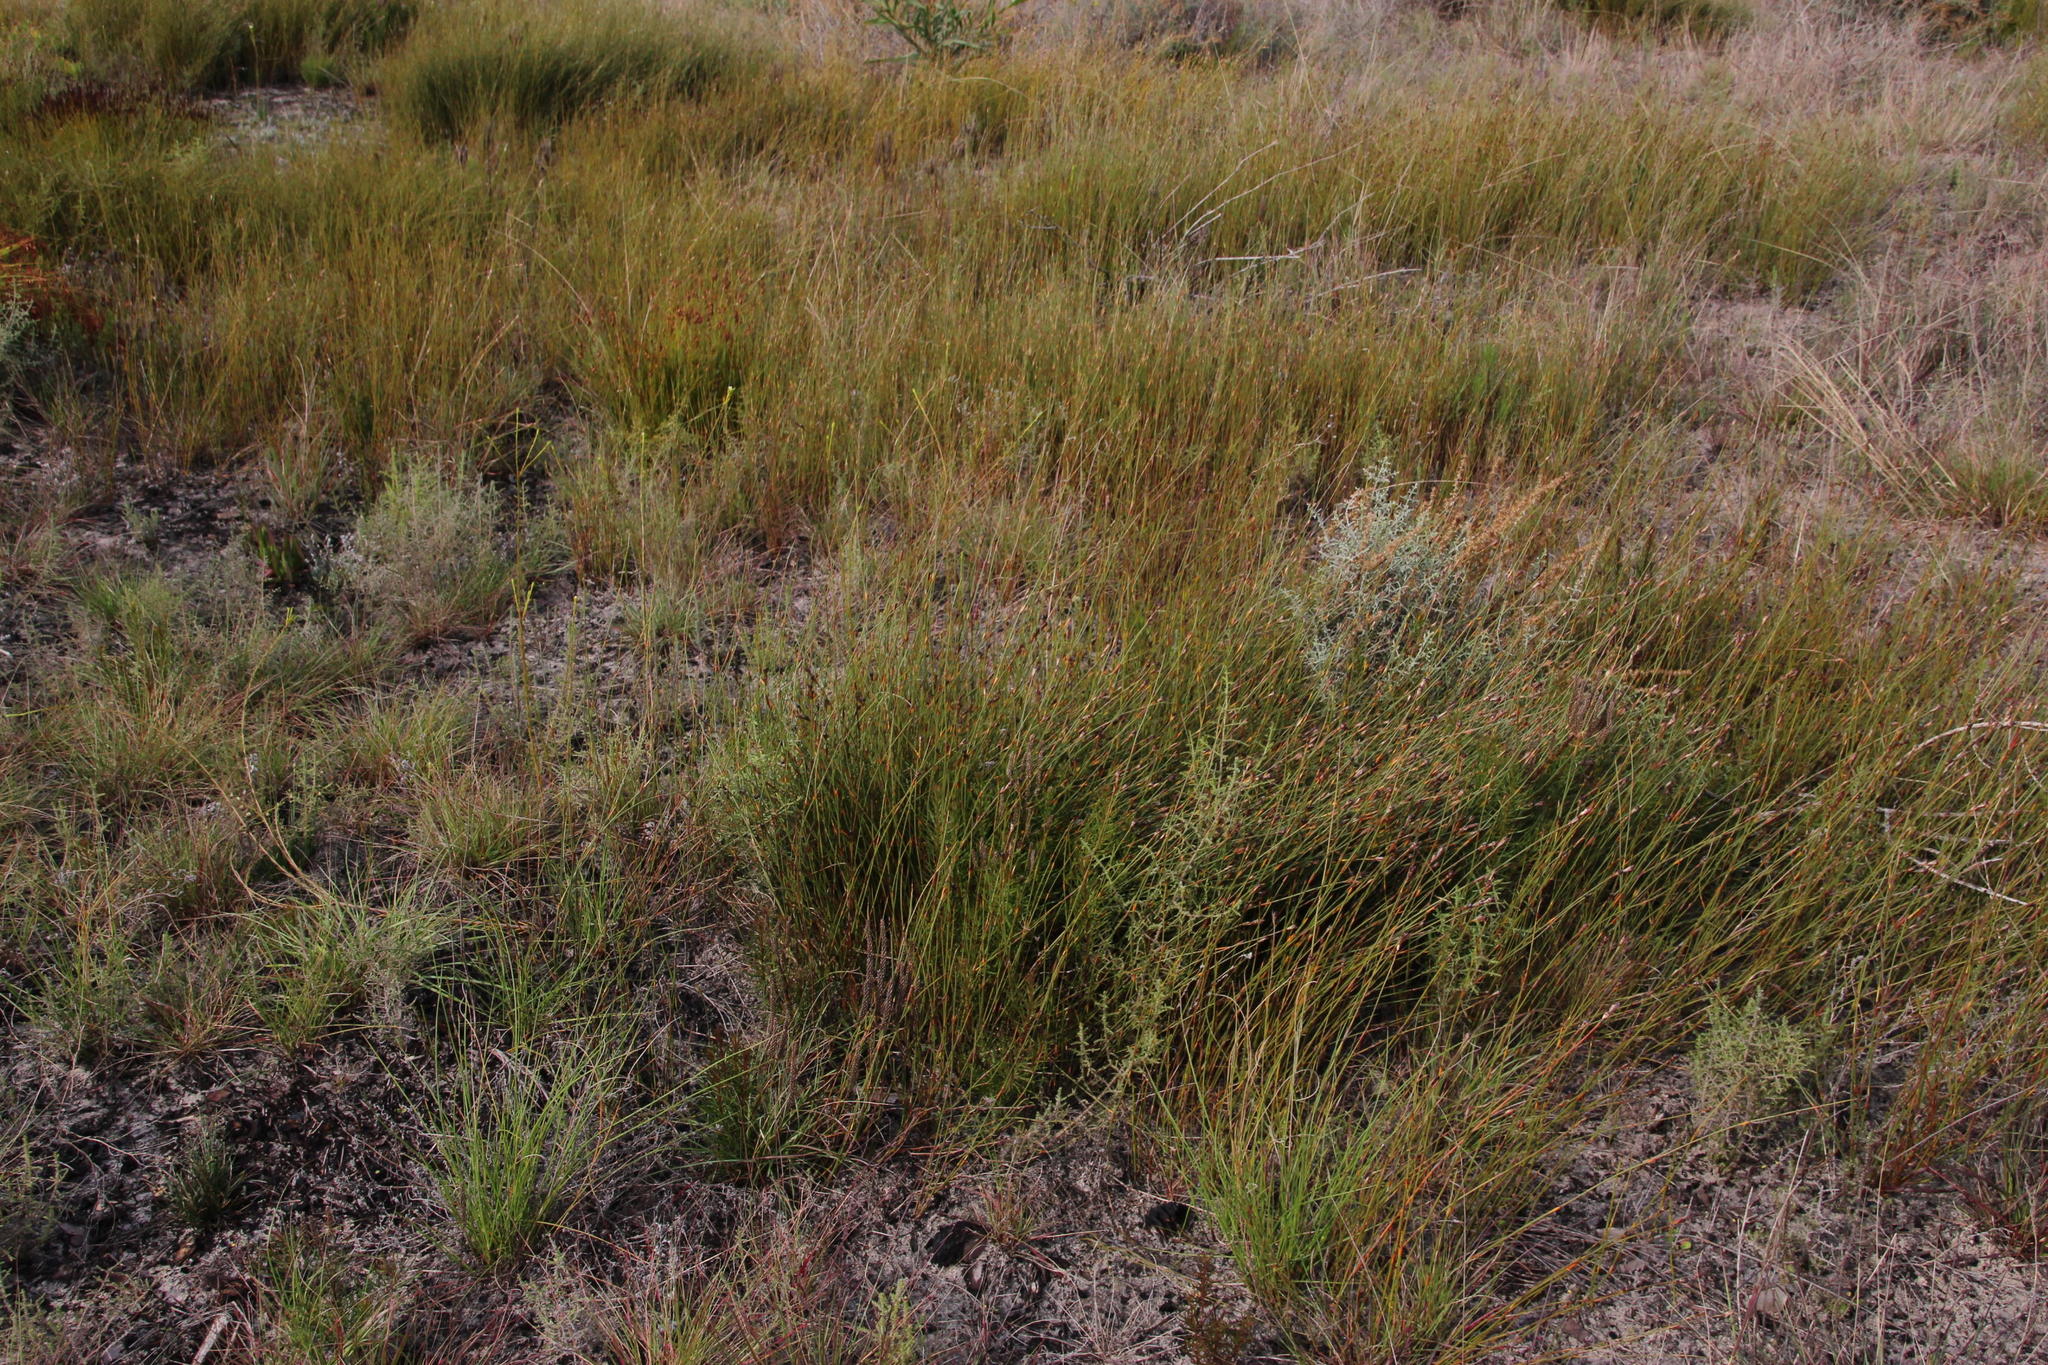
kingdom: Plantae
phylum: Tracheophyta
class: Liliopsida
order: Poales
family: Restionaceae
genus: Willdenowia
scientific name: Willdenowia sulcata
